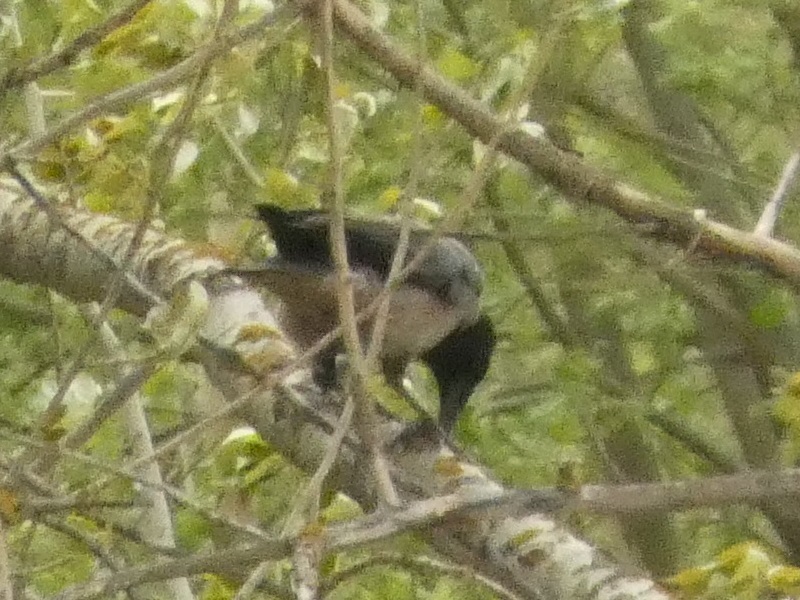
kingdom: Animalia
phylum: Chordata
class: Aves
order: Passeriformes
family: Corvidae
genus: Corvus
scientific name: Corvus cornix
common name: Hooded crow
